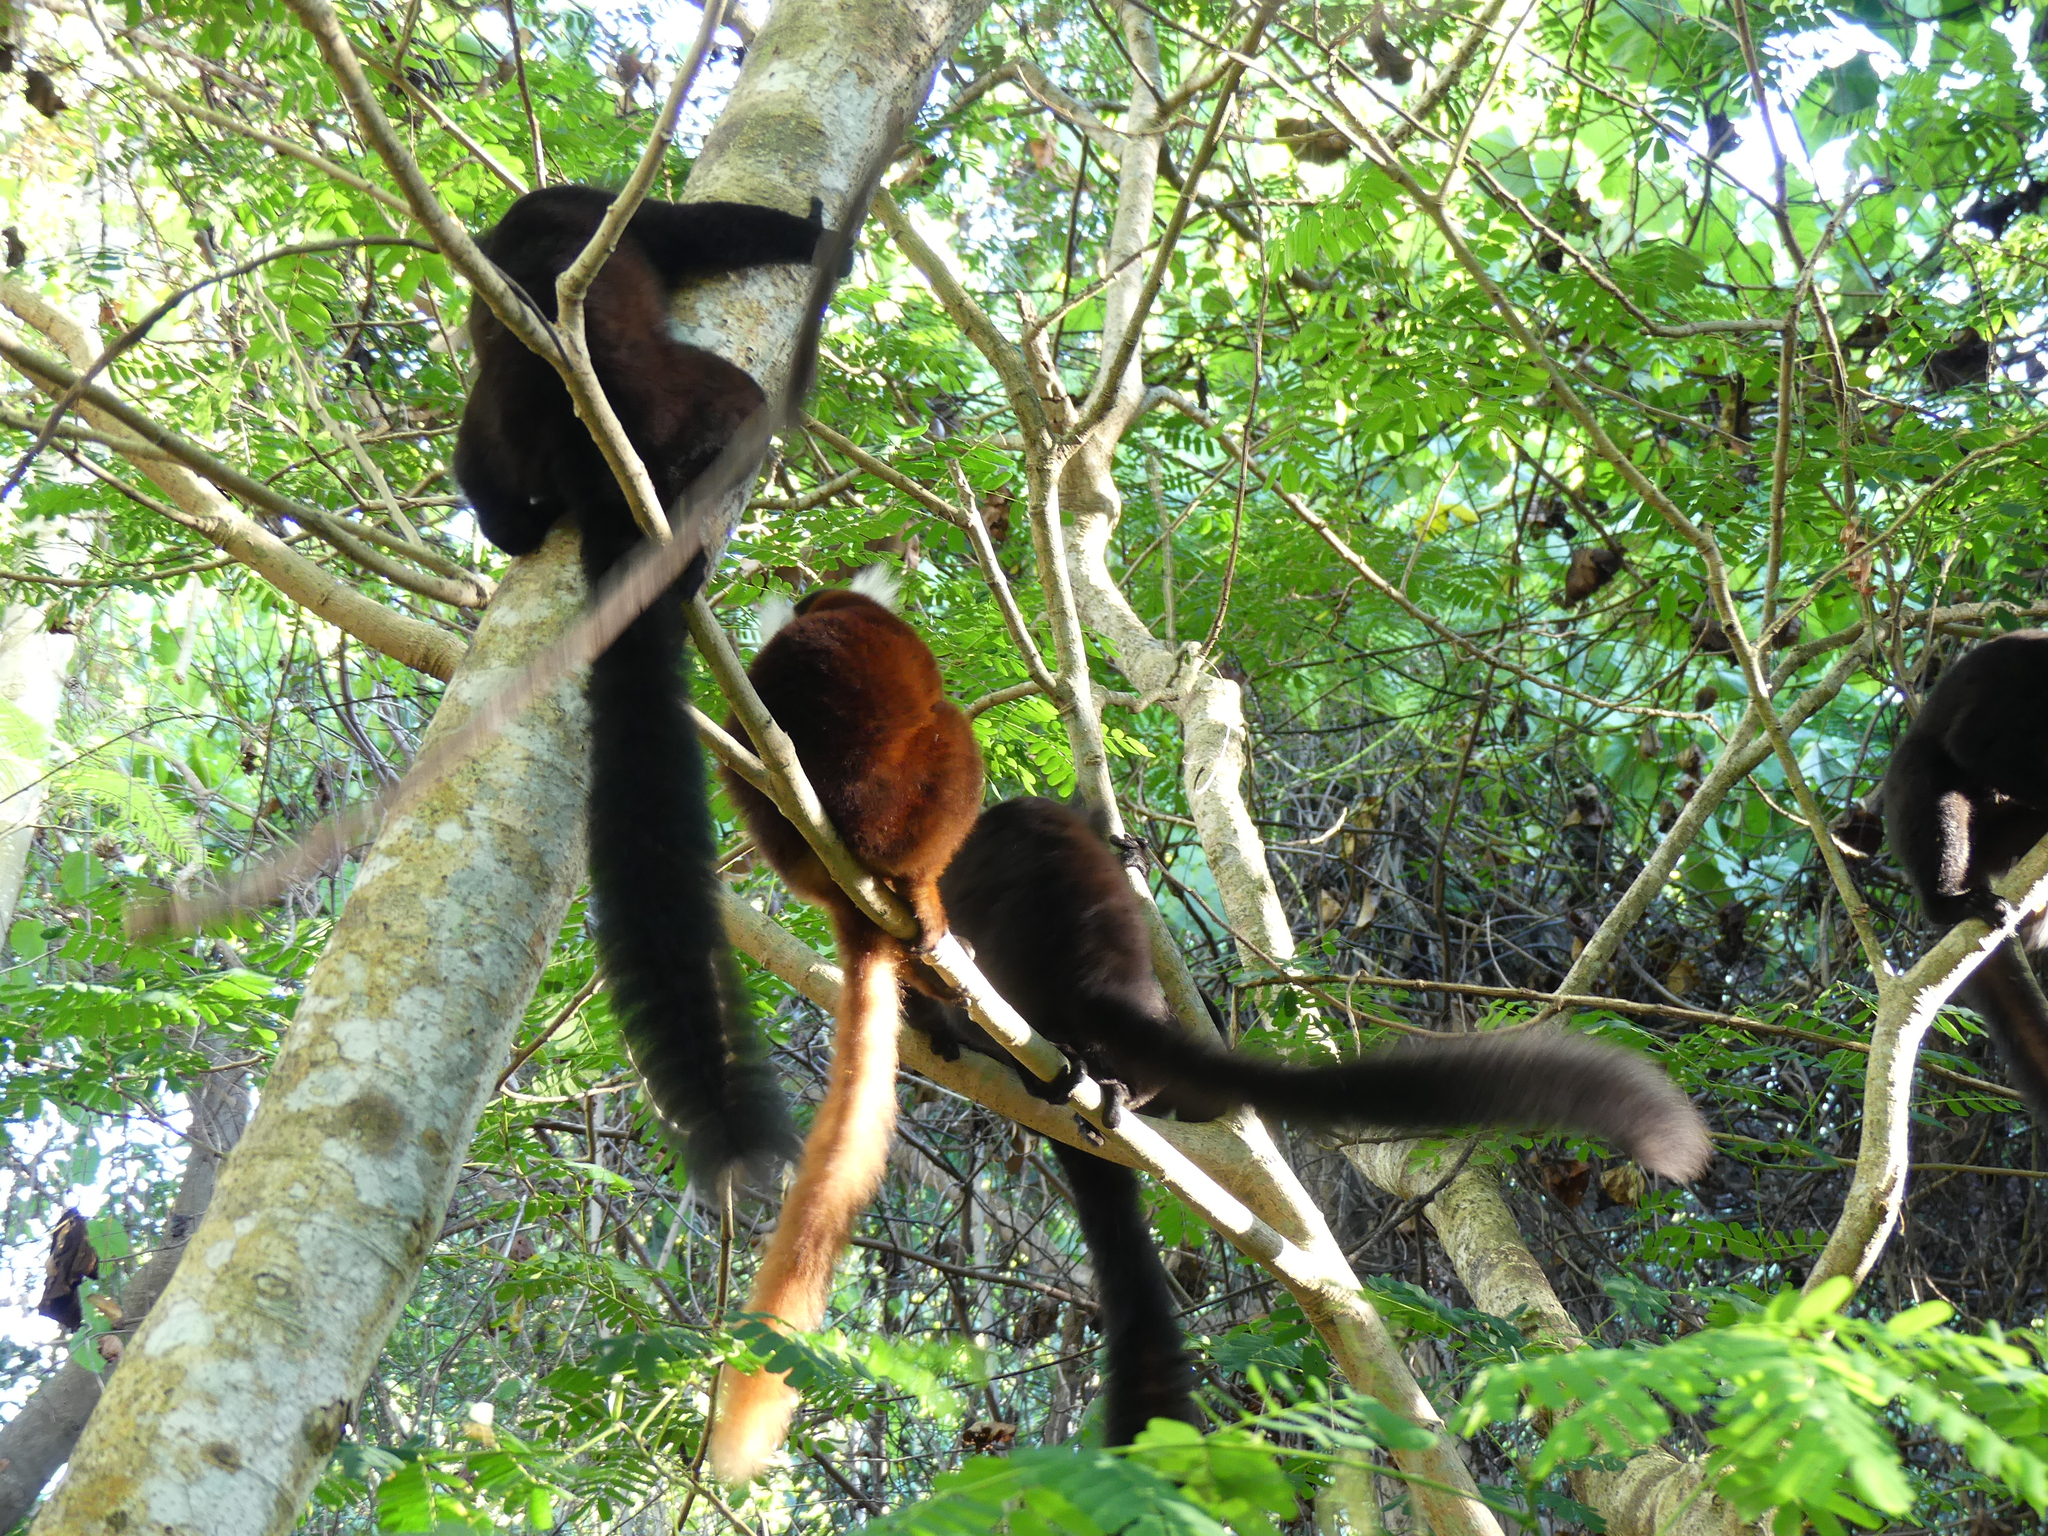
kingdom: Animalia
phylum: Chordata
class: Mammalia
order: Primates
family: Lemuridae
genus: Eulemur
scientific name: Eulemur macaco
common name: Black lemur
